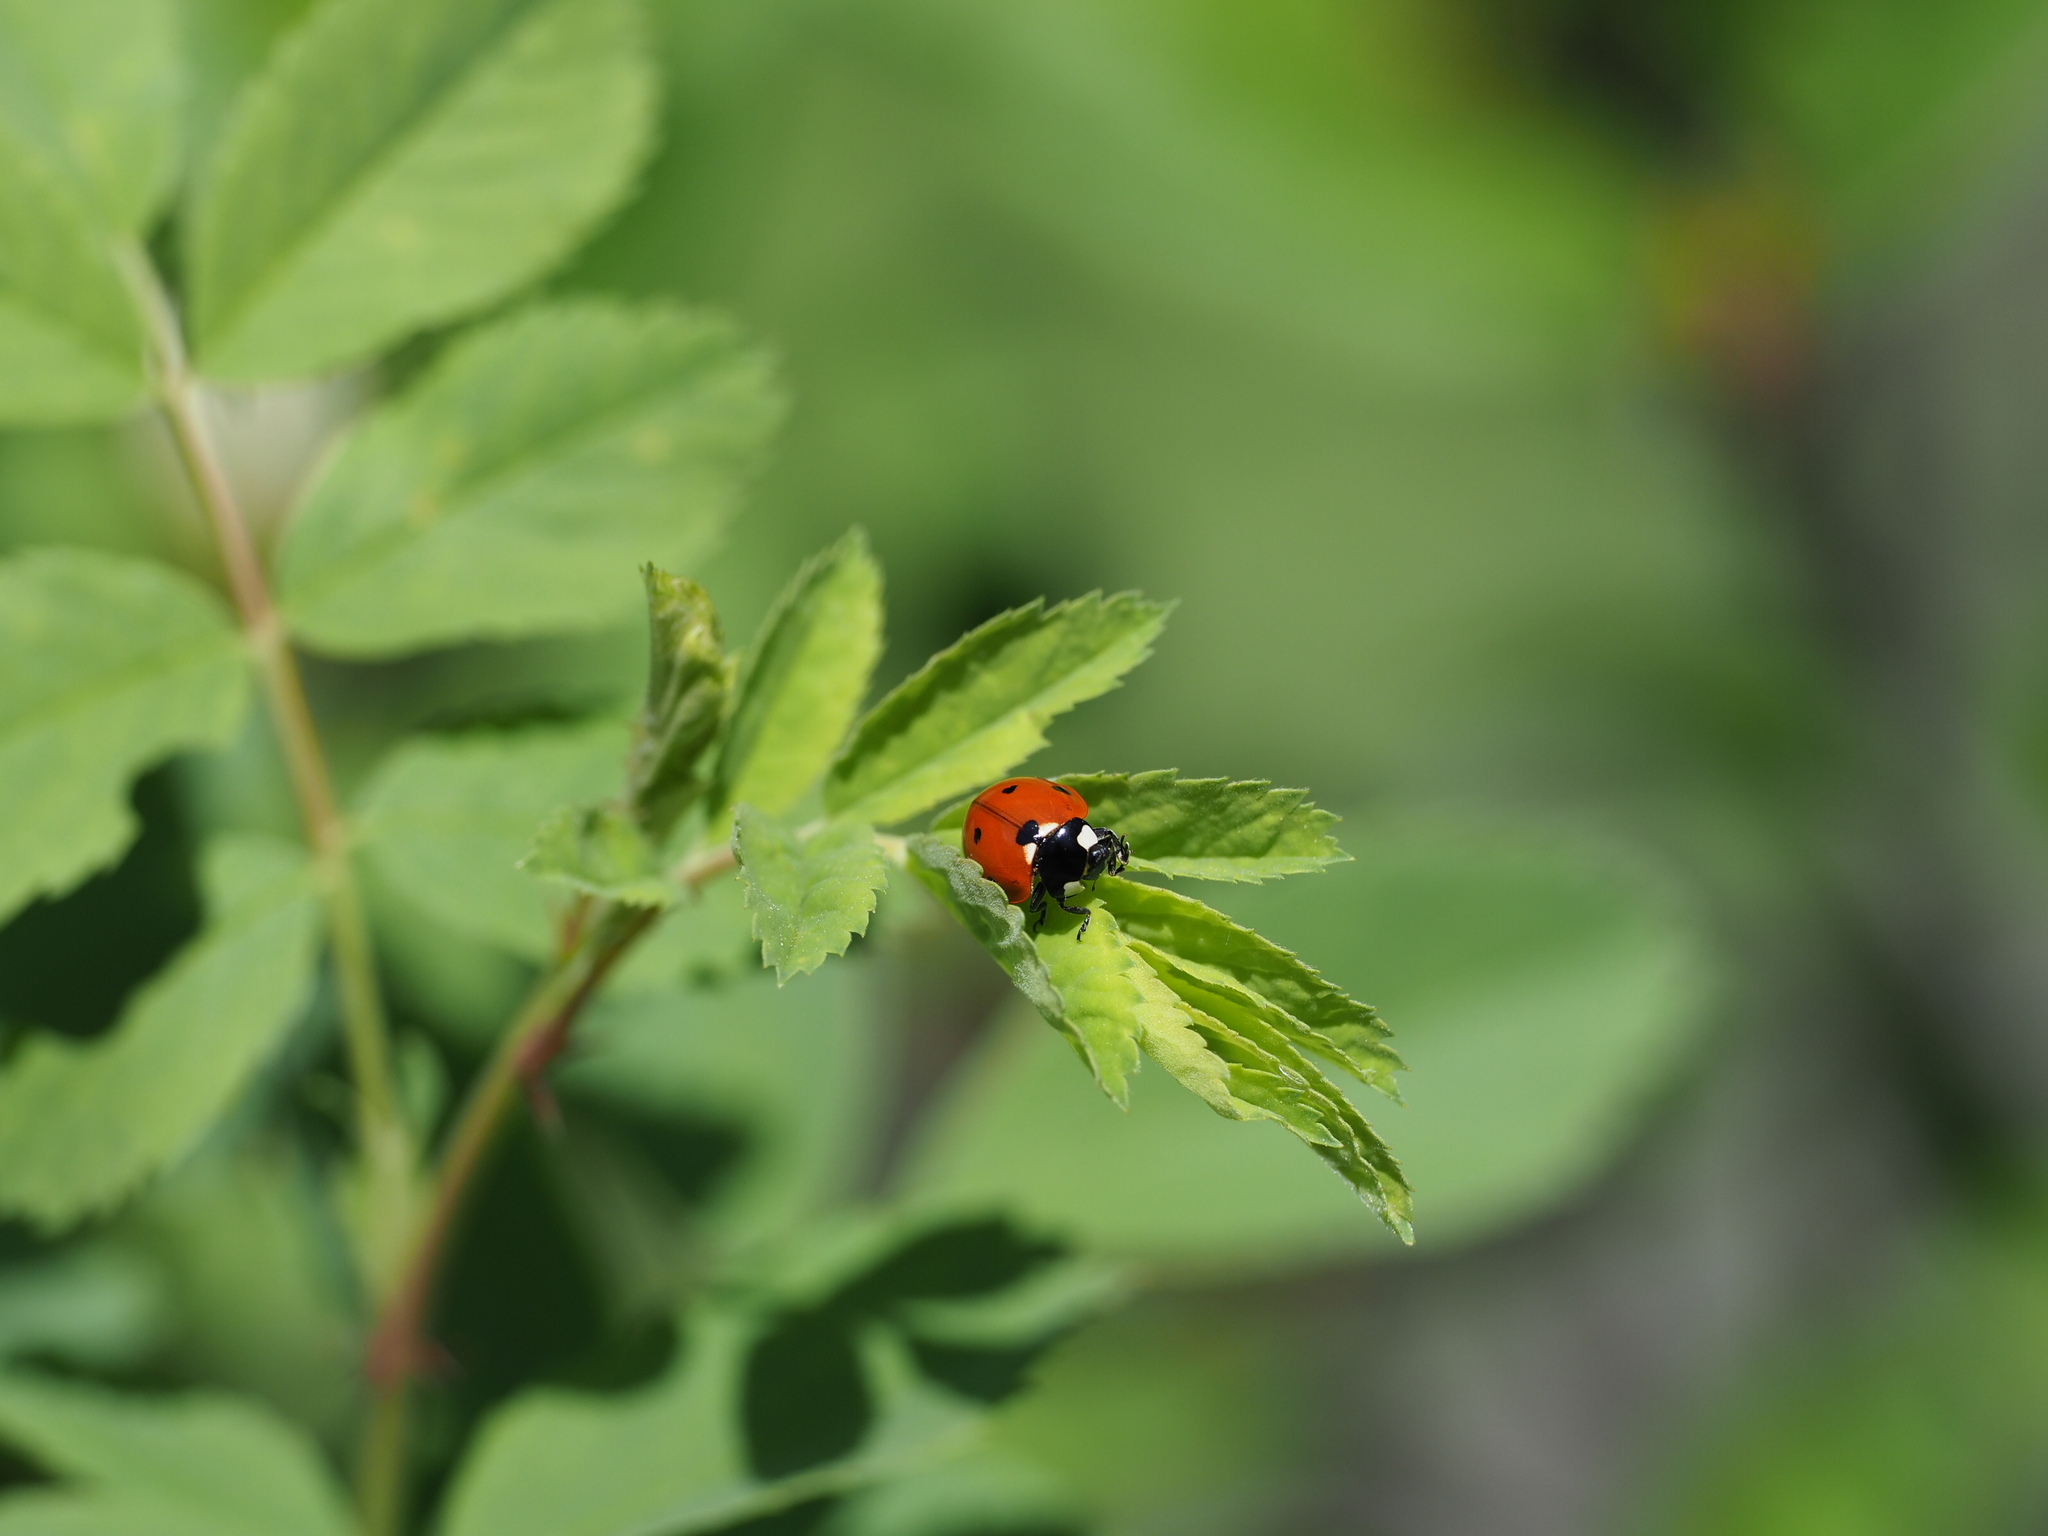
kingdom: Animalia
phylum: Arthropoda
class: Insecta
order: Coleoptera
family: Coccinellidae
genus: Coccinella
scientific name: Coccinella septempunctata
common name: Sevenspotted lady beetle
